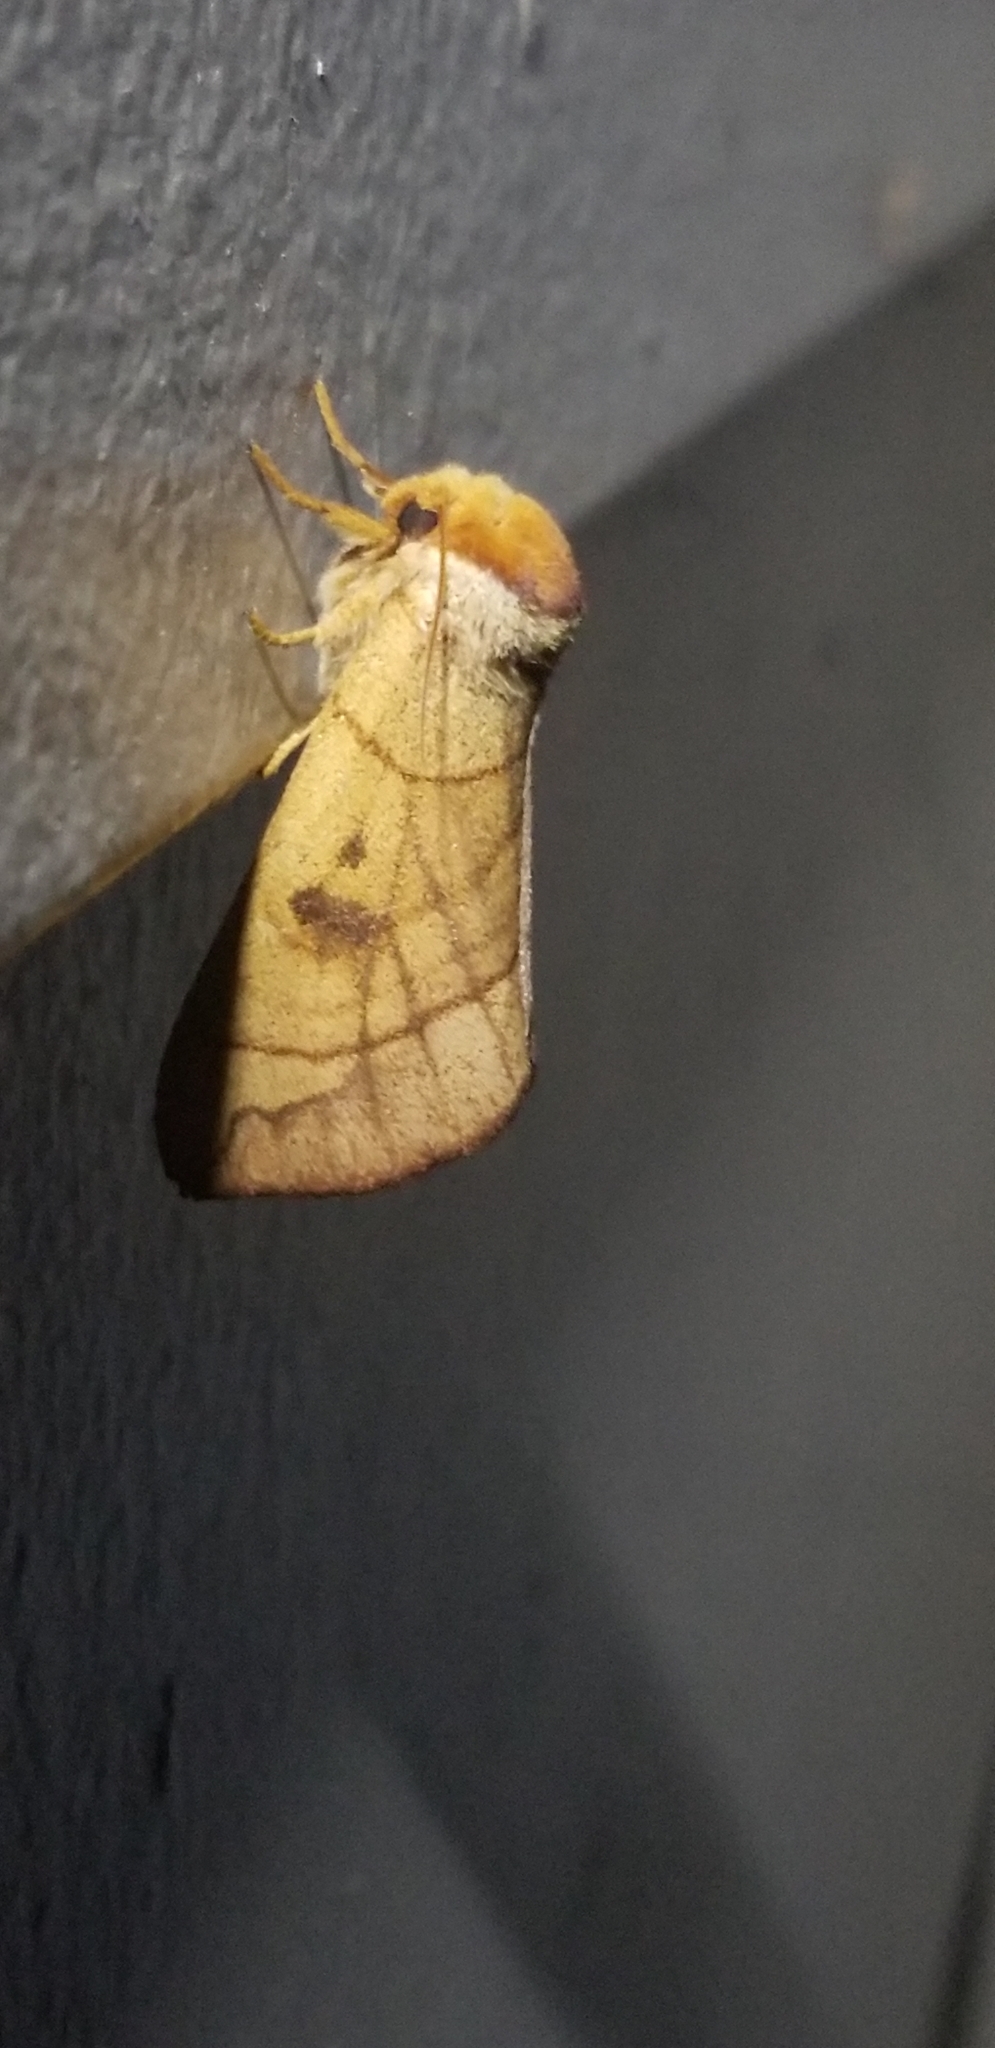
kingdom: Animalia
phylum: Arthropoda
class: Insecta
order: Lepidoptera
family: Notodontidae
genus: Datana
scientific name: Datana perspicua
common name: Spotted datana
